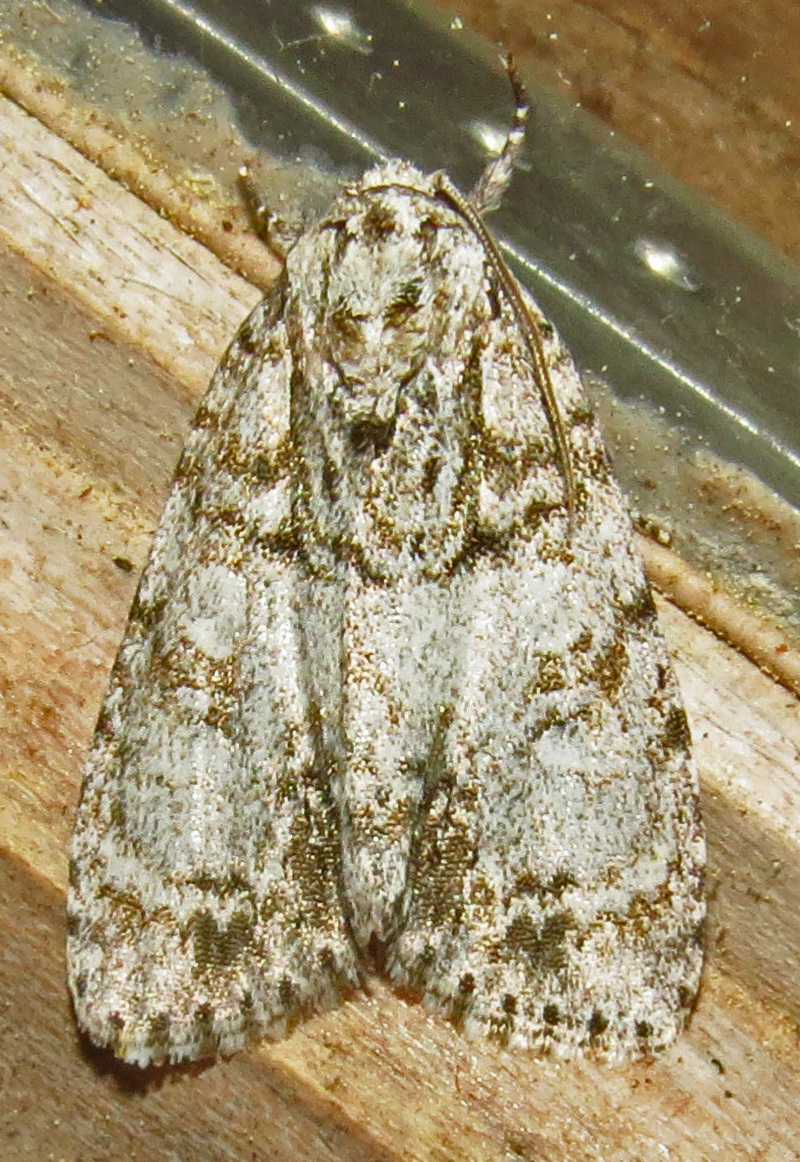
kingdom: Animalia
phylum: Arthropoda
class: Insecta
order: Lepidoptera
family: Noctuidae
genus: Acronicta
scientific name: Acronicta retardata
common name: Maple dagger
